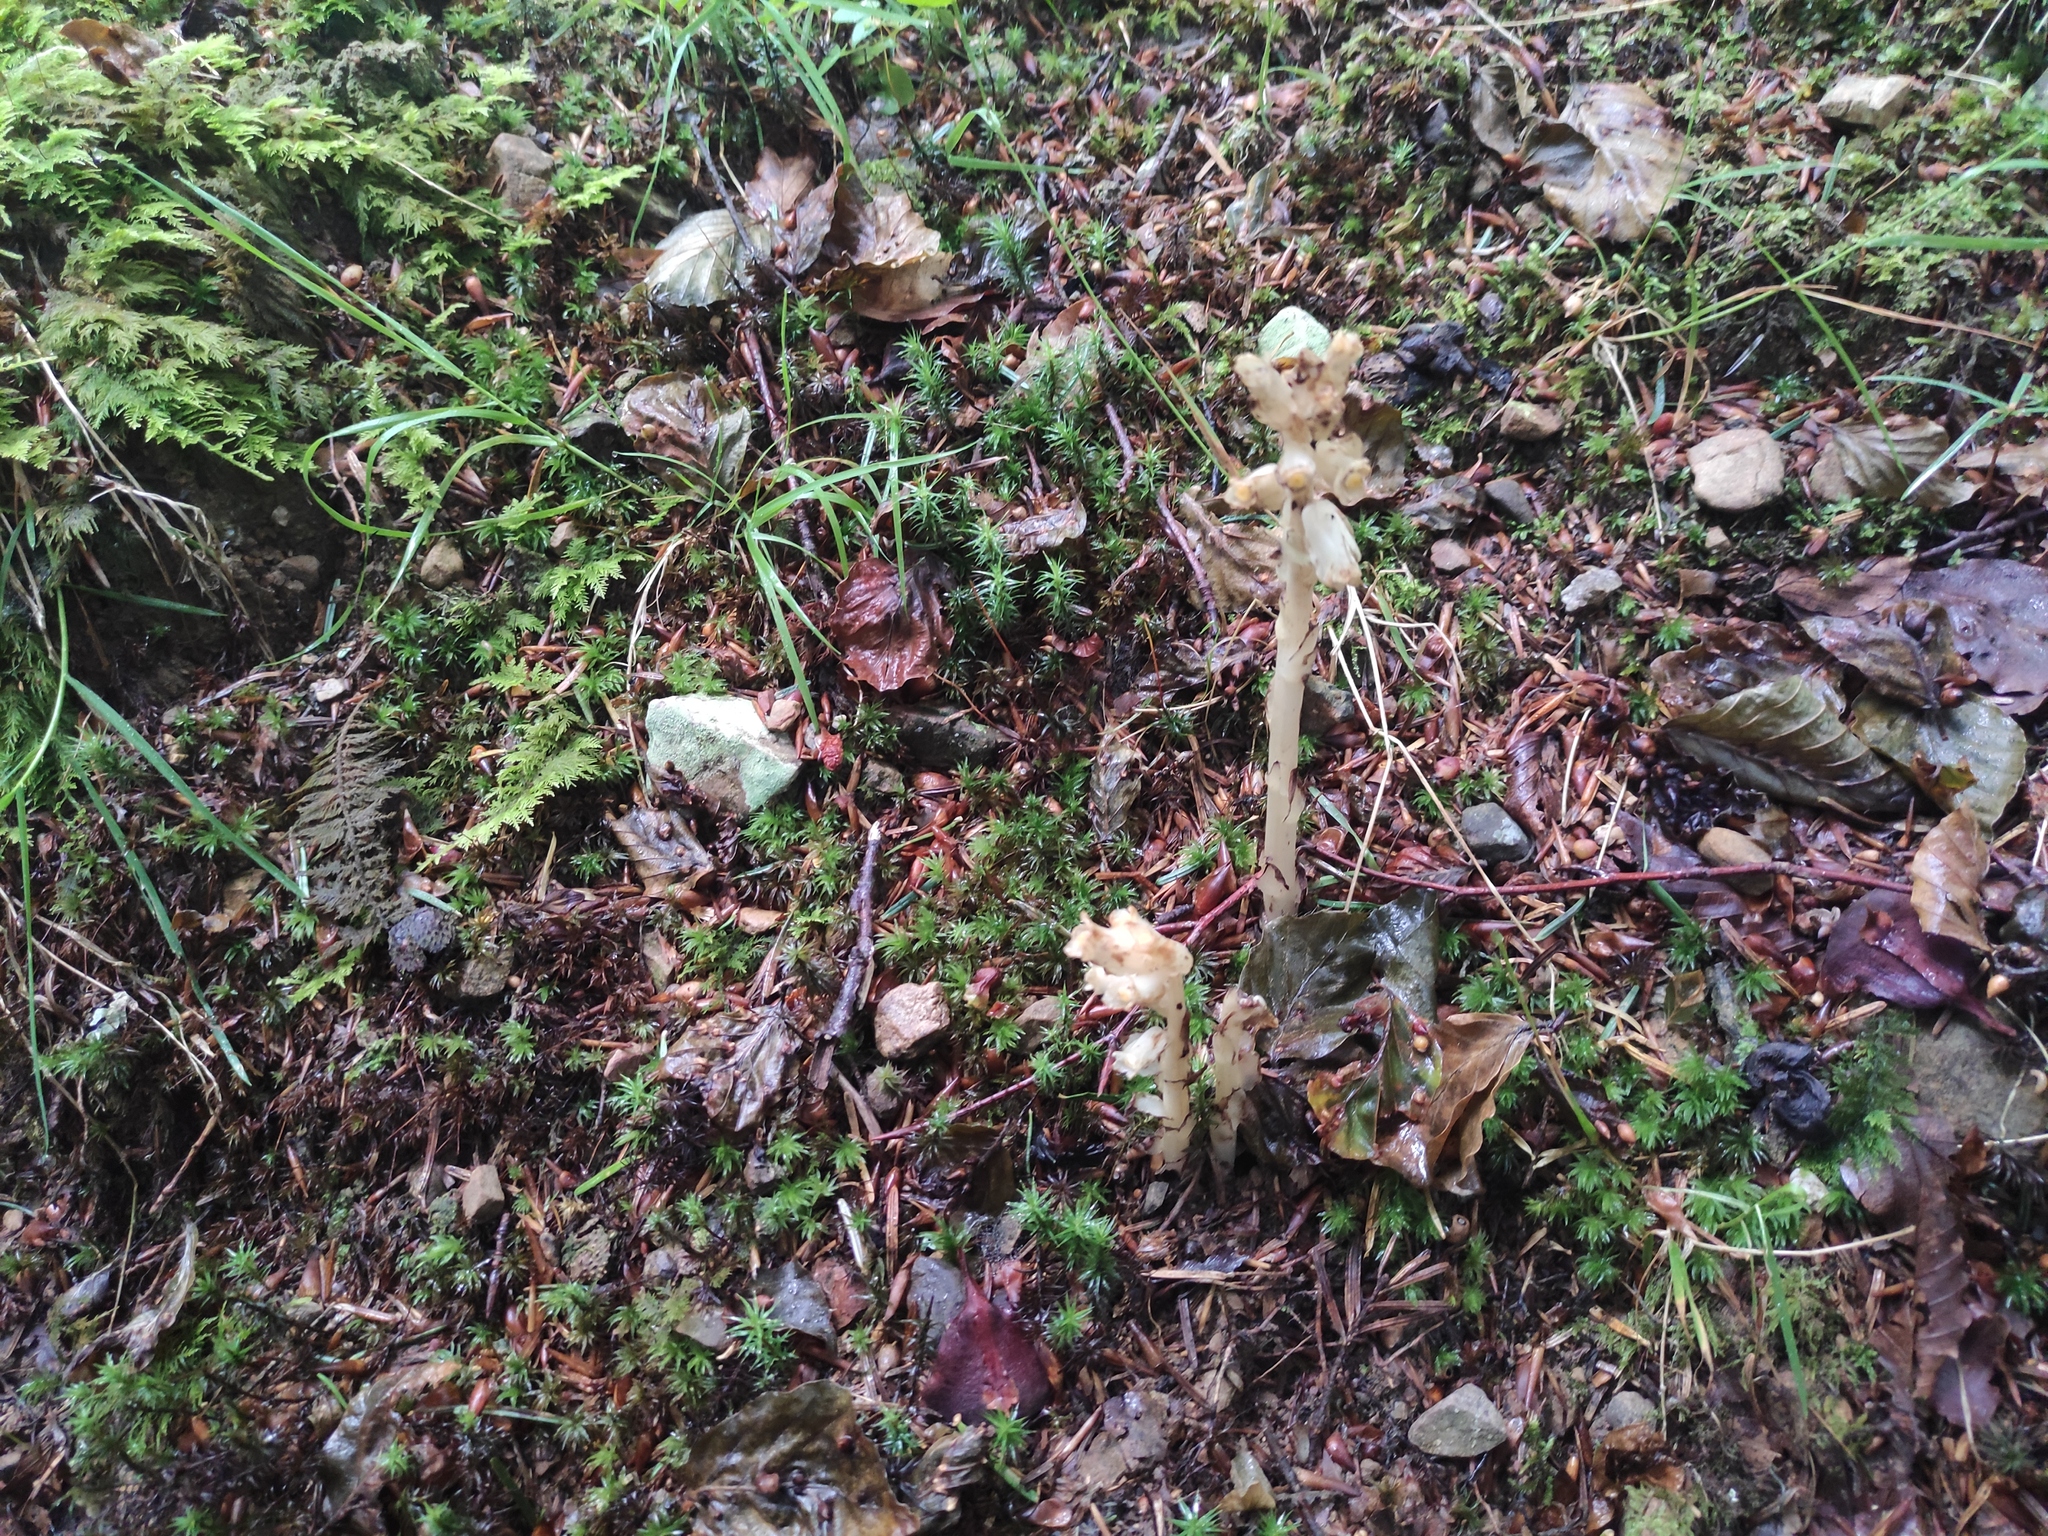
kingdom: Plantae
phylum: Tracheophyta
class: Magnoliopsida
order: Ericales
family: Ericaceae
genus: Hypopitys
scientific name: Hypopitys monotropa
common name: Yellow bird's-nest
